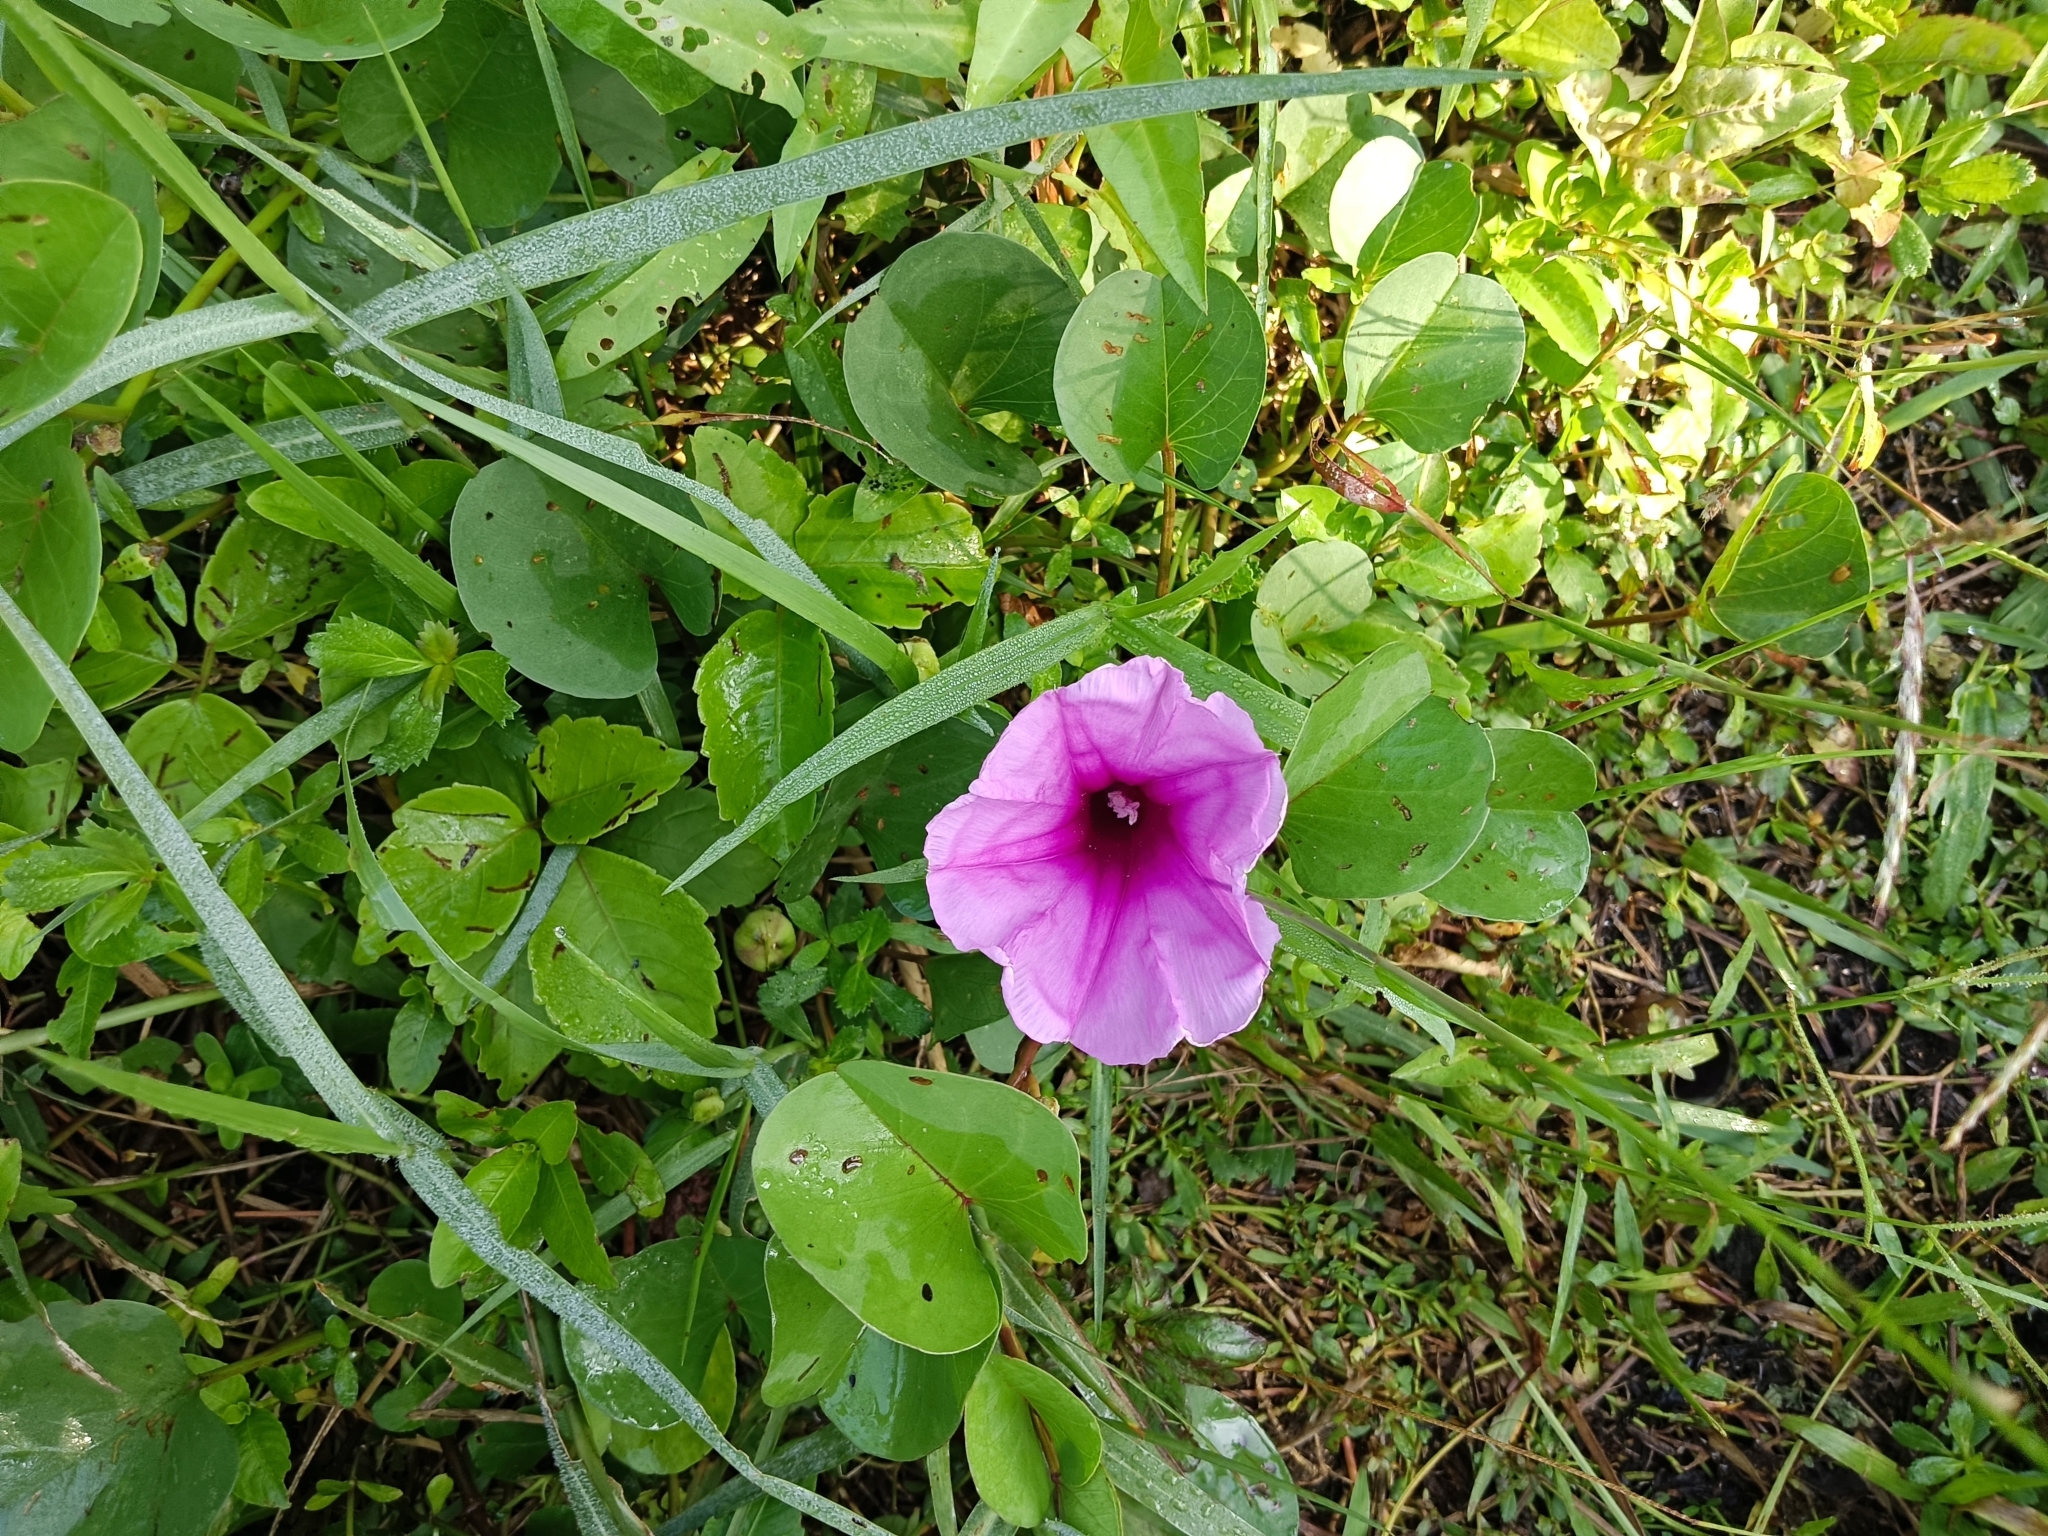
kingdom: Plantae
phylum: Tracheophyta
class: Magnoliopsida
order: Solanales
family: Convolvulaceae
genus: Ipomoea
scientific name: Ipomoea pes-caprae
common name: Beach morning glory
